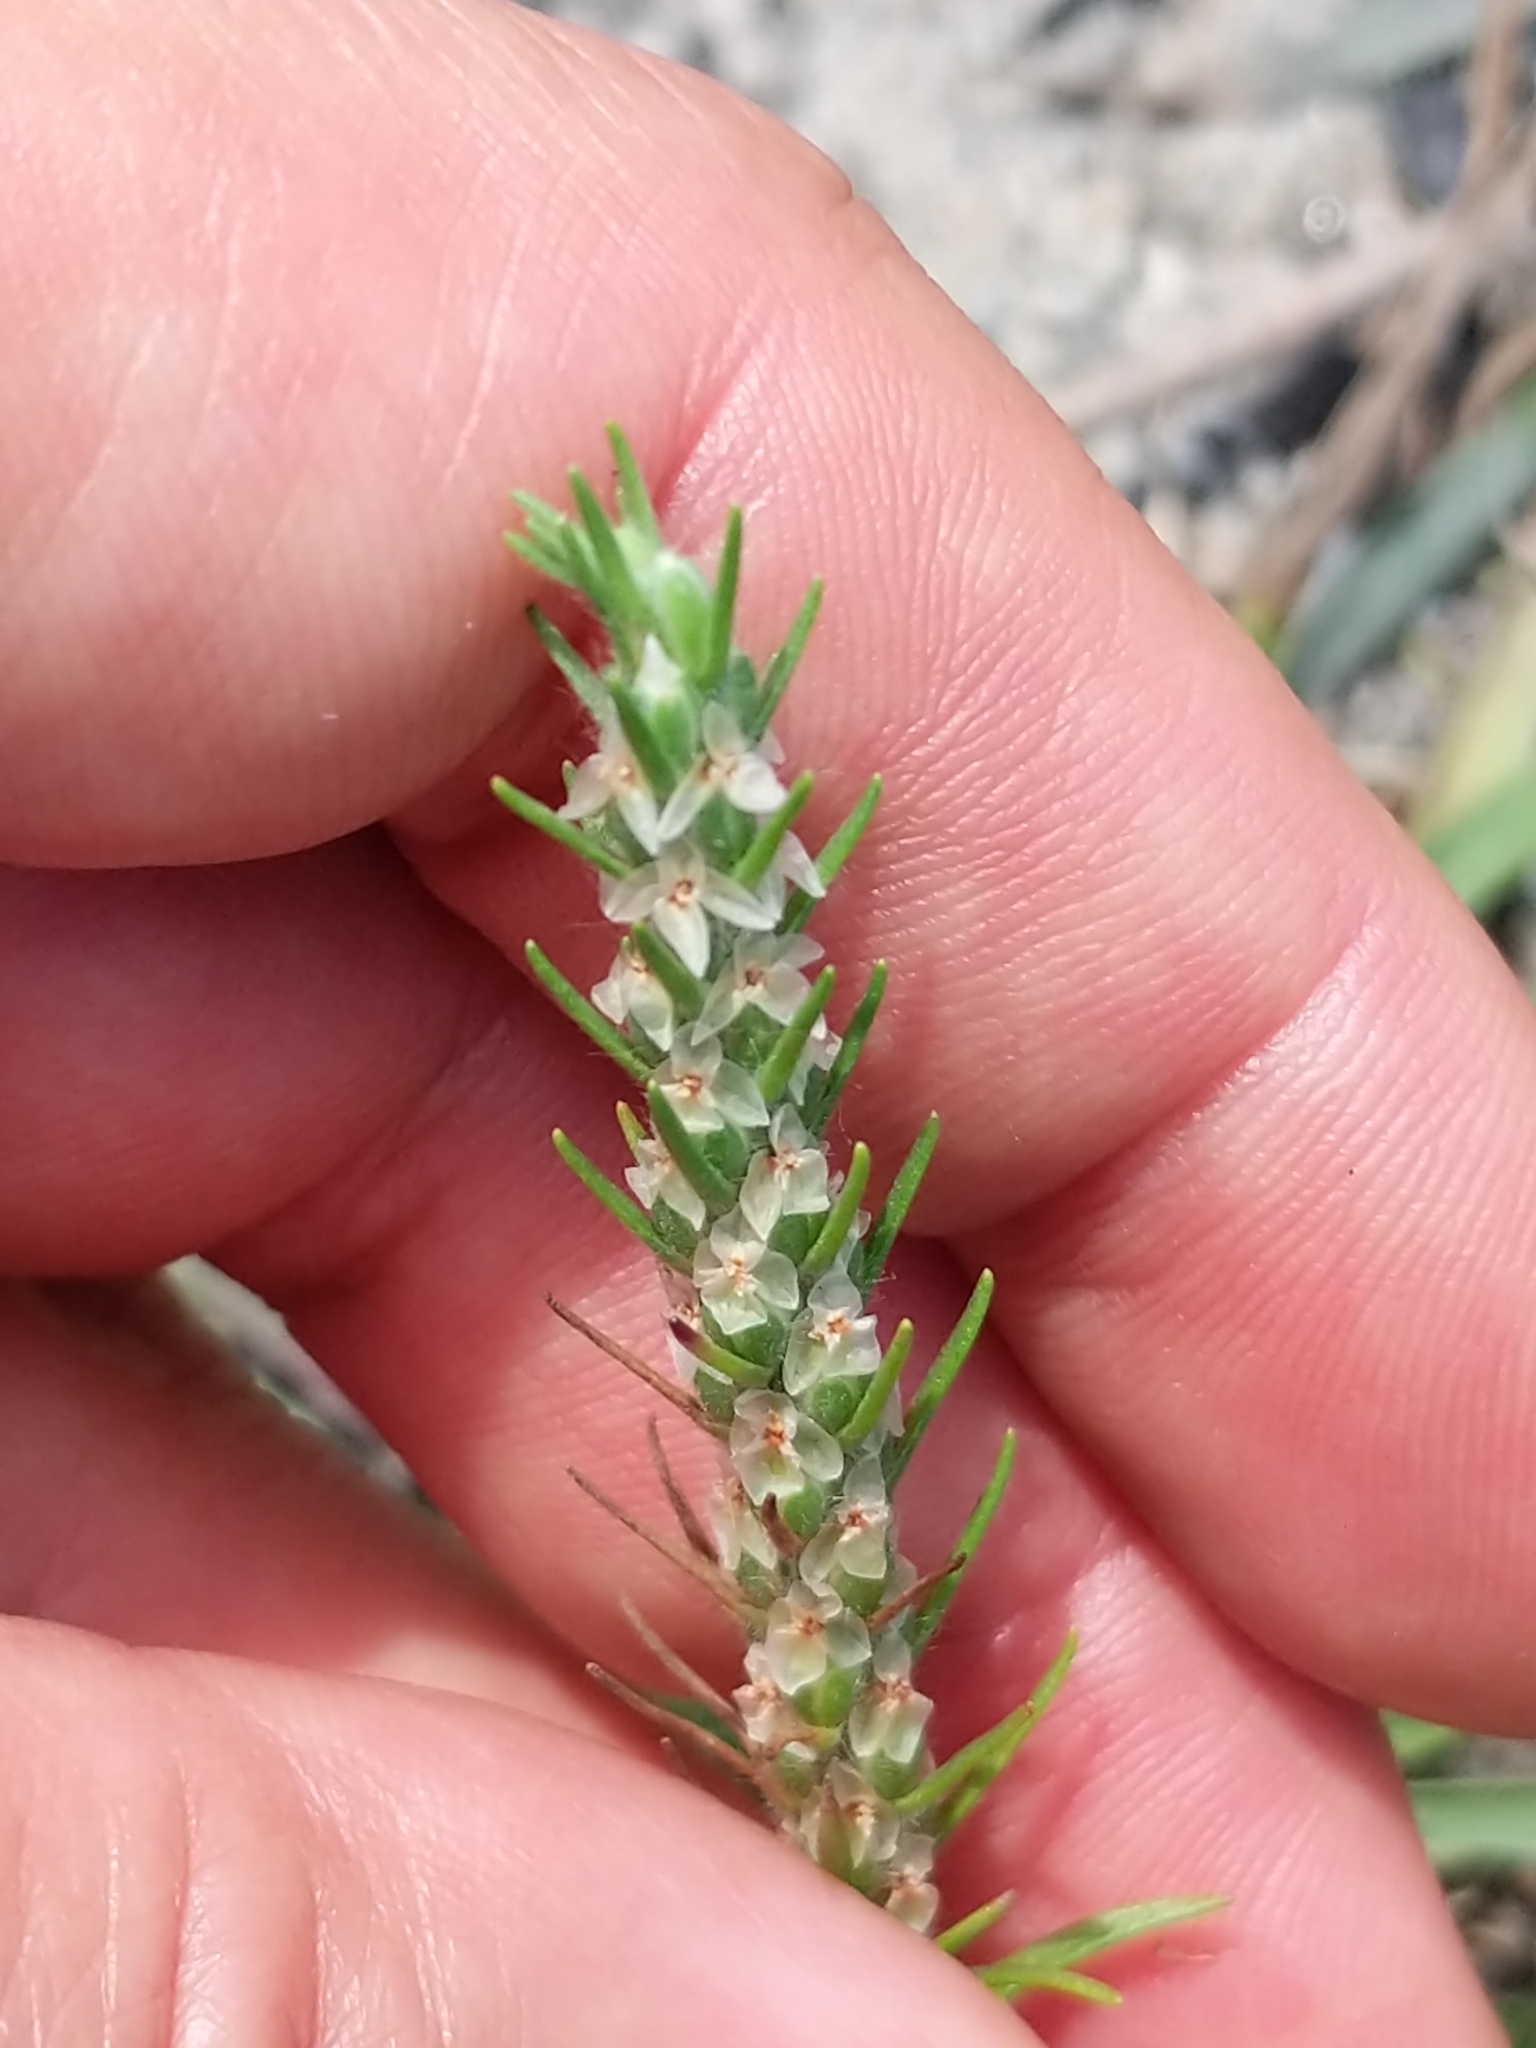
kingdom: Plantae
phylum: Tracheophyta
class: Magnoliopsida
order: Lamiales
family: Plantaginaceae
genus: Plantago
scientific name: Plantago aristata
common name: Bracted plantain
